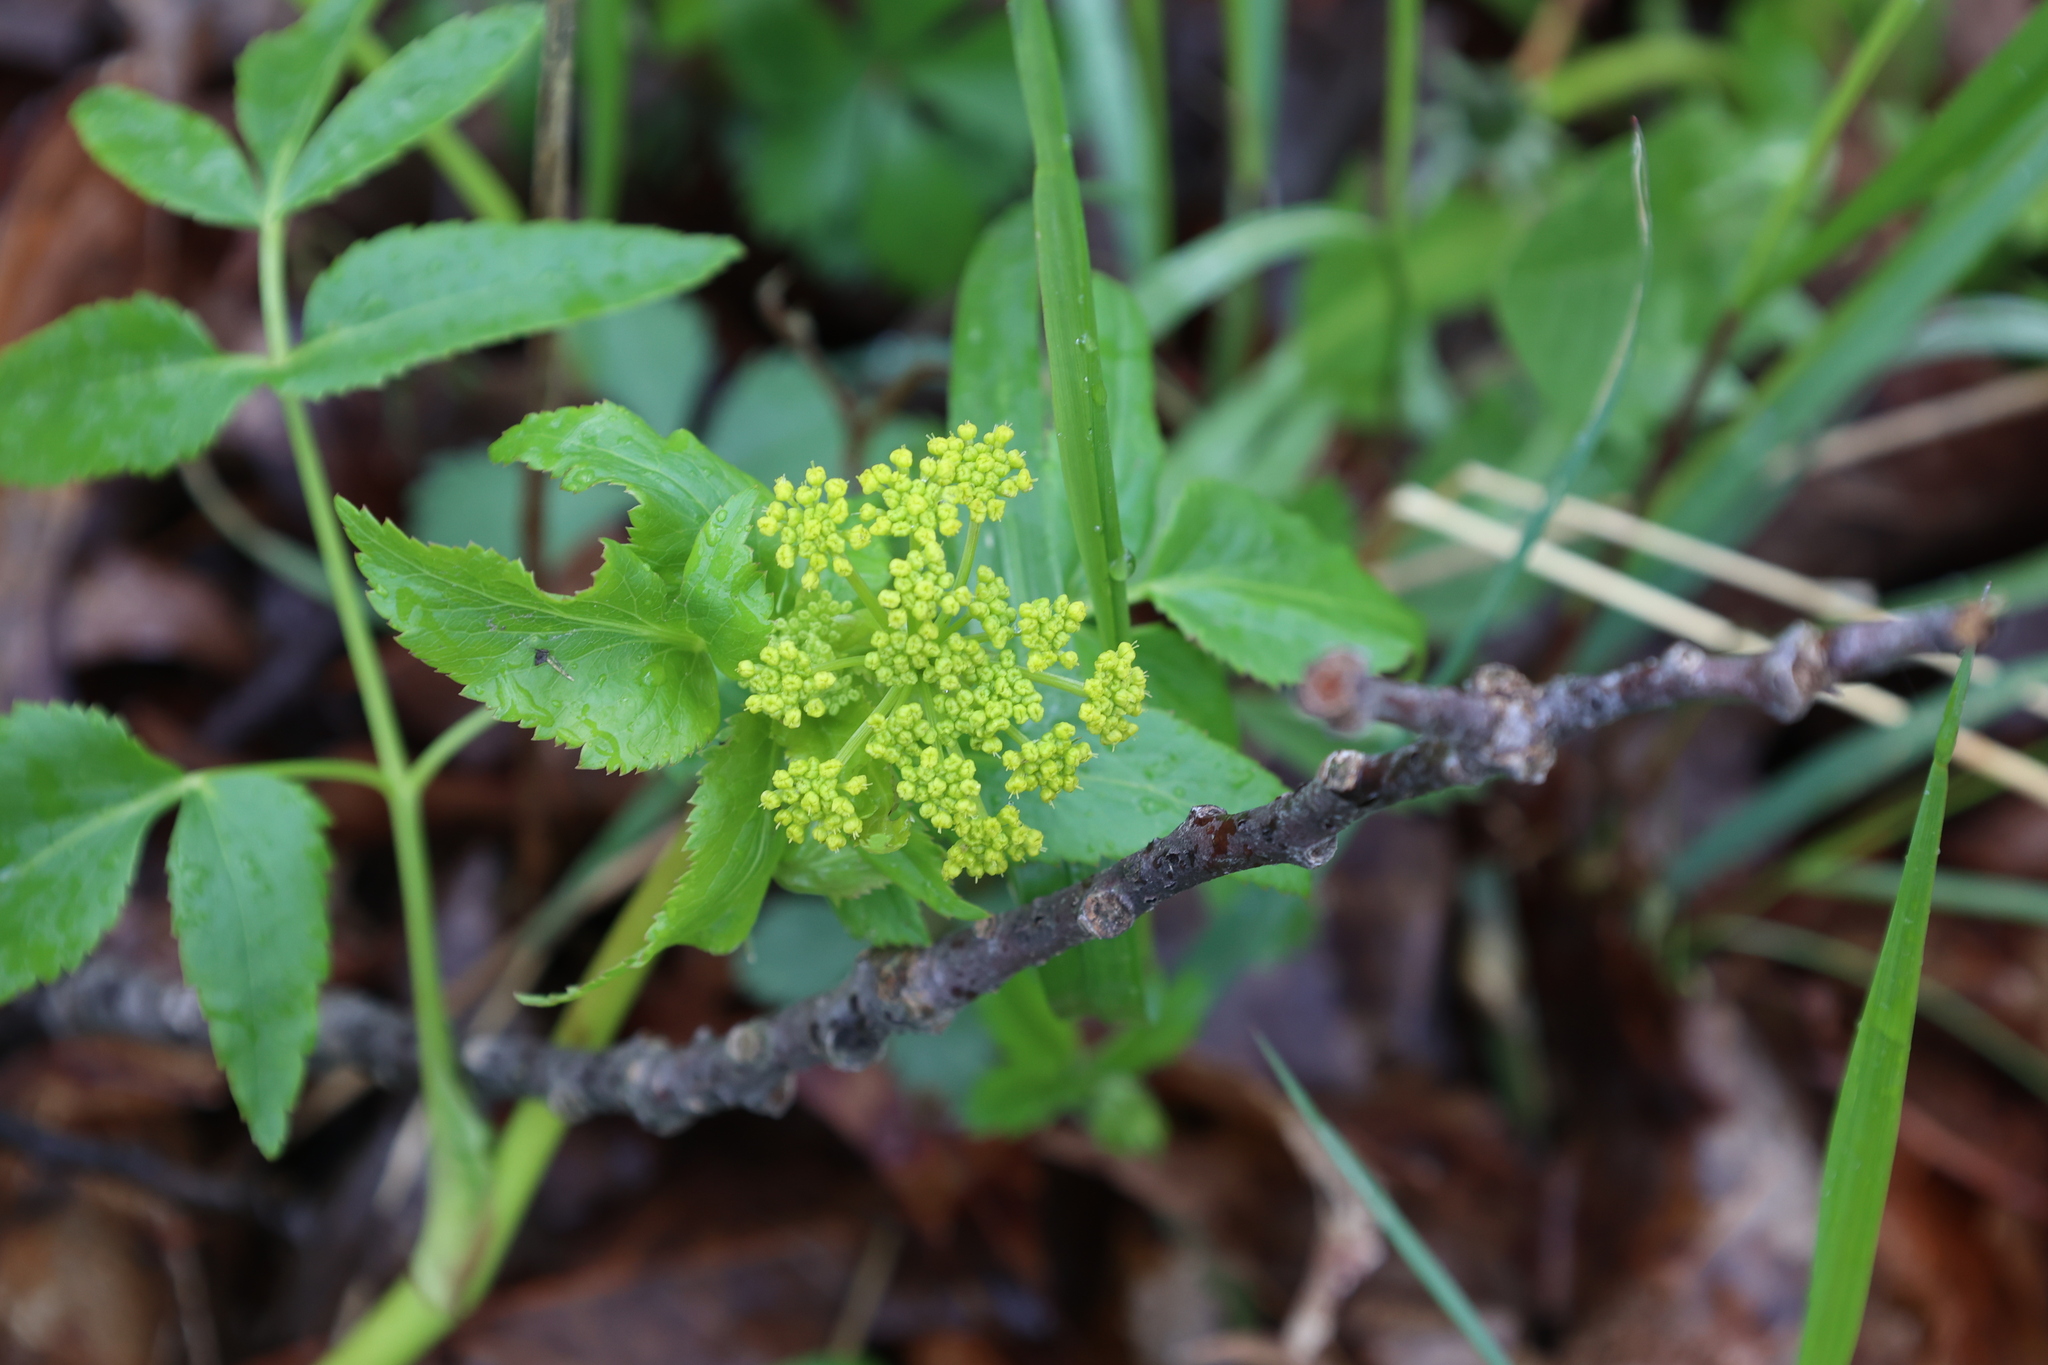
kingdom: Plantae
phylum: Tracheophyta
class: Magnoliopsida
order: Apiales
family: Apiaceae
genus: Zizia
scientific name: Zizia aurea
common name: Golden alexanders
